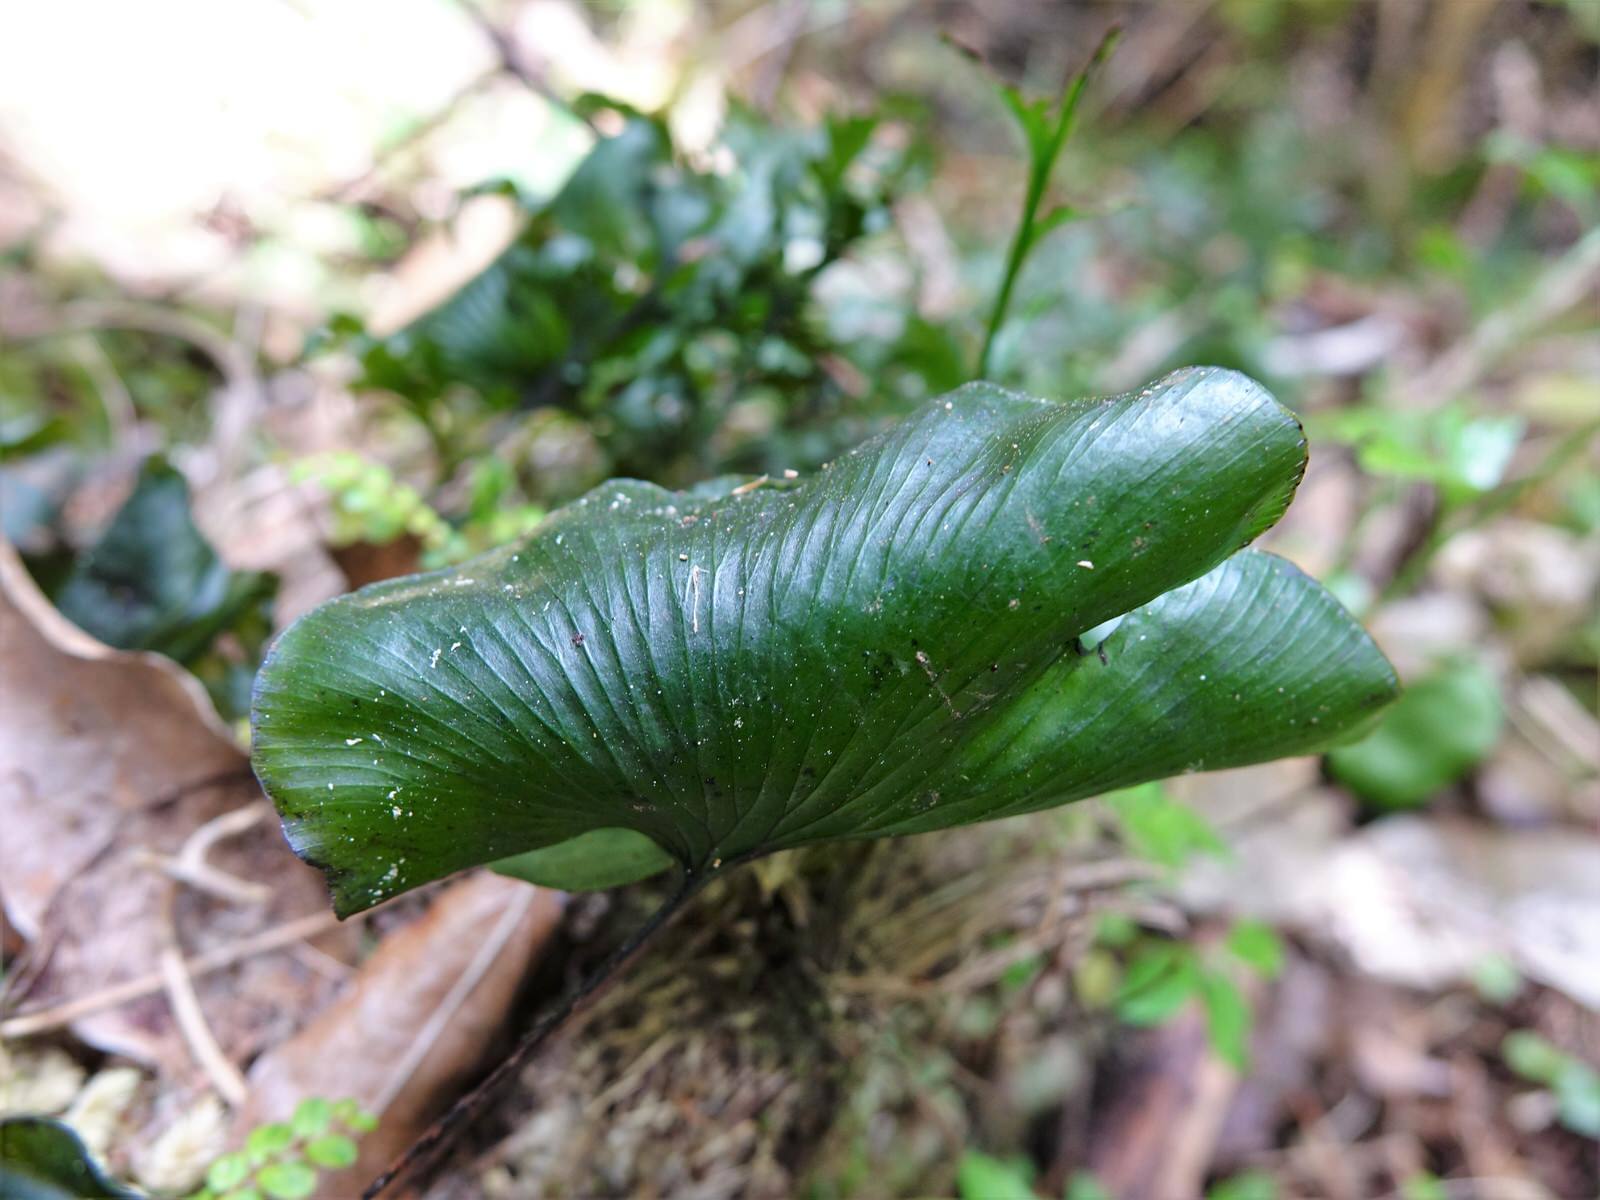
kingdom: Plantae
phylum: Tracheophyta
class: Polypodiopsida
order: Hymenophyllales
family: Hymenophyllaceae
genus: Hymenophyllum
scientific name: Hymenophyllum nephrophyllum
